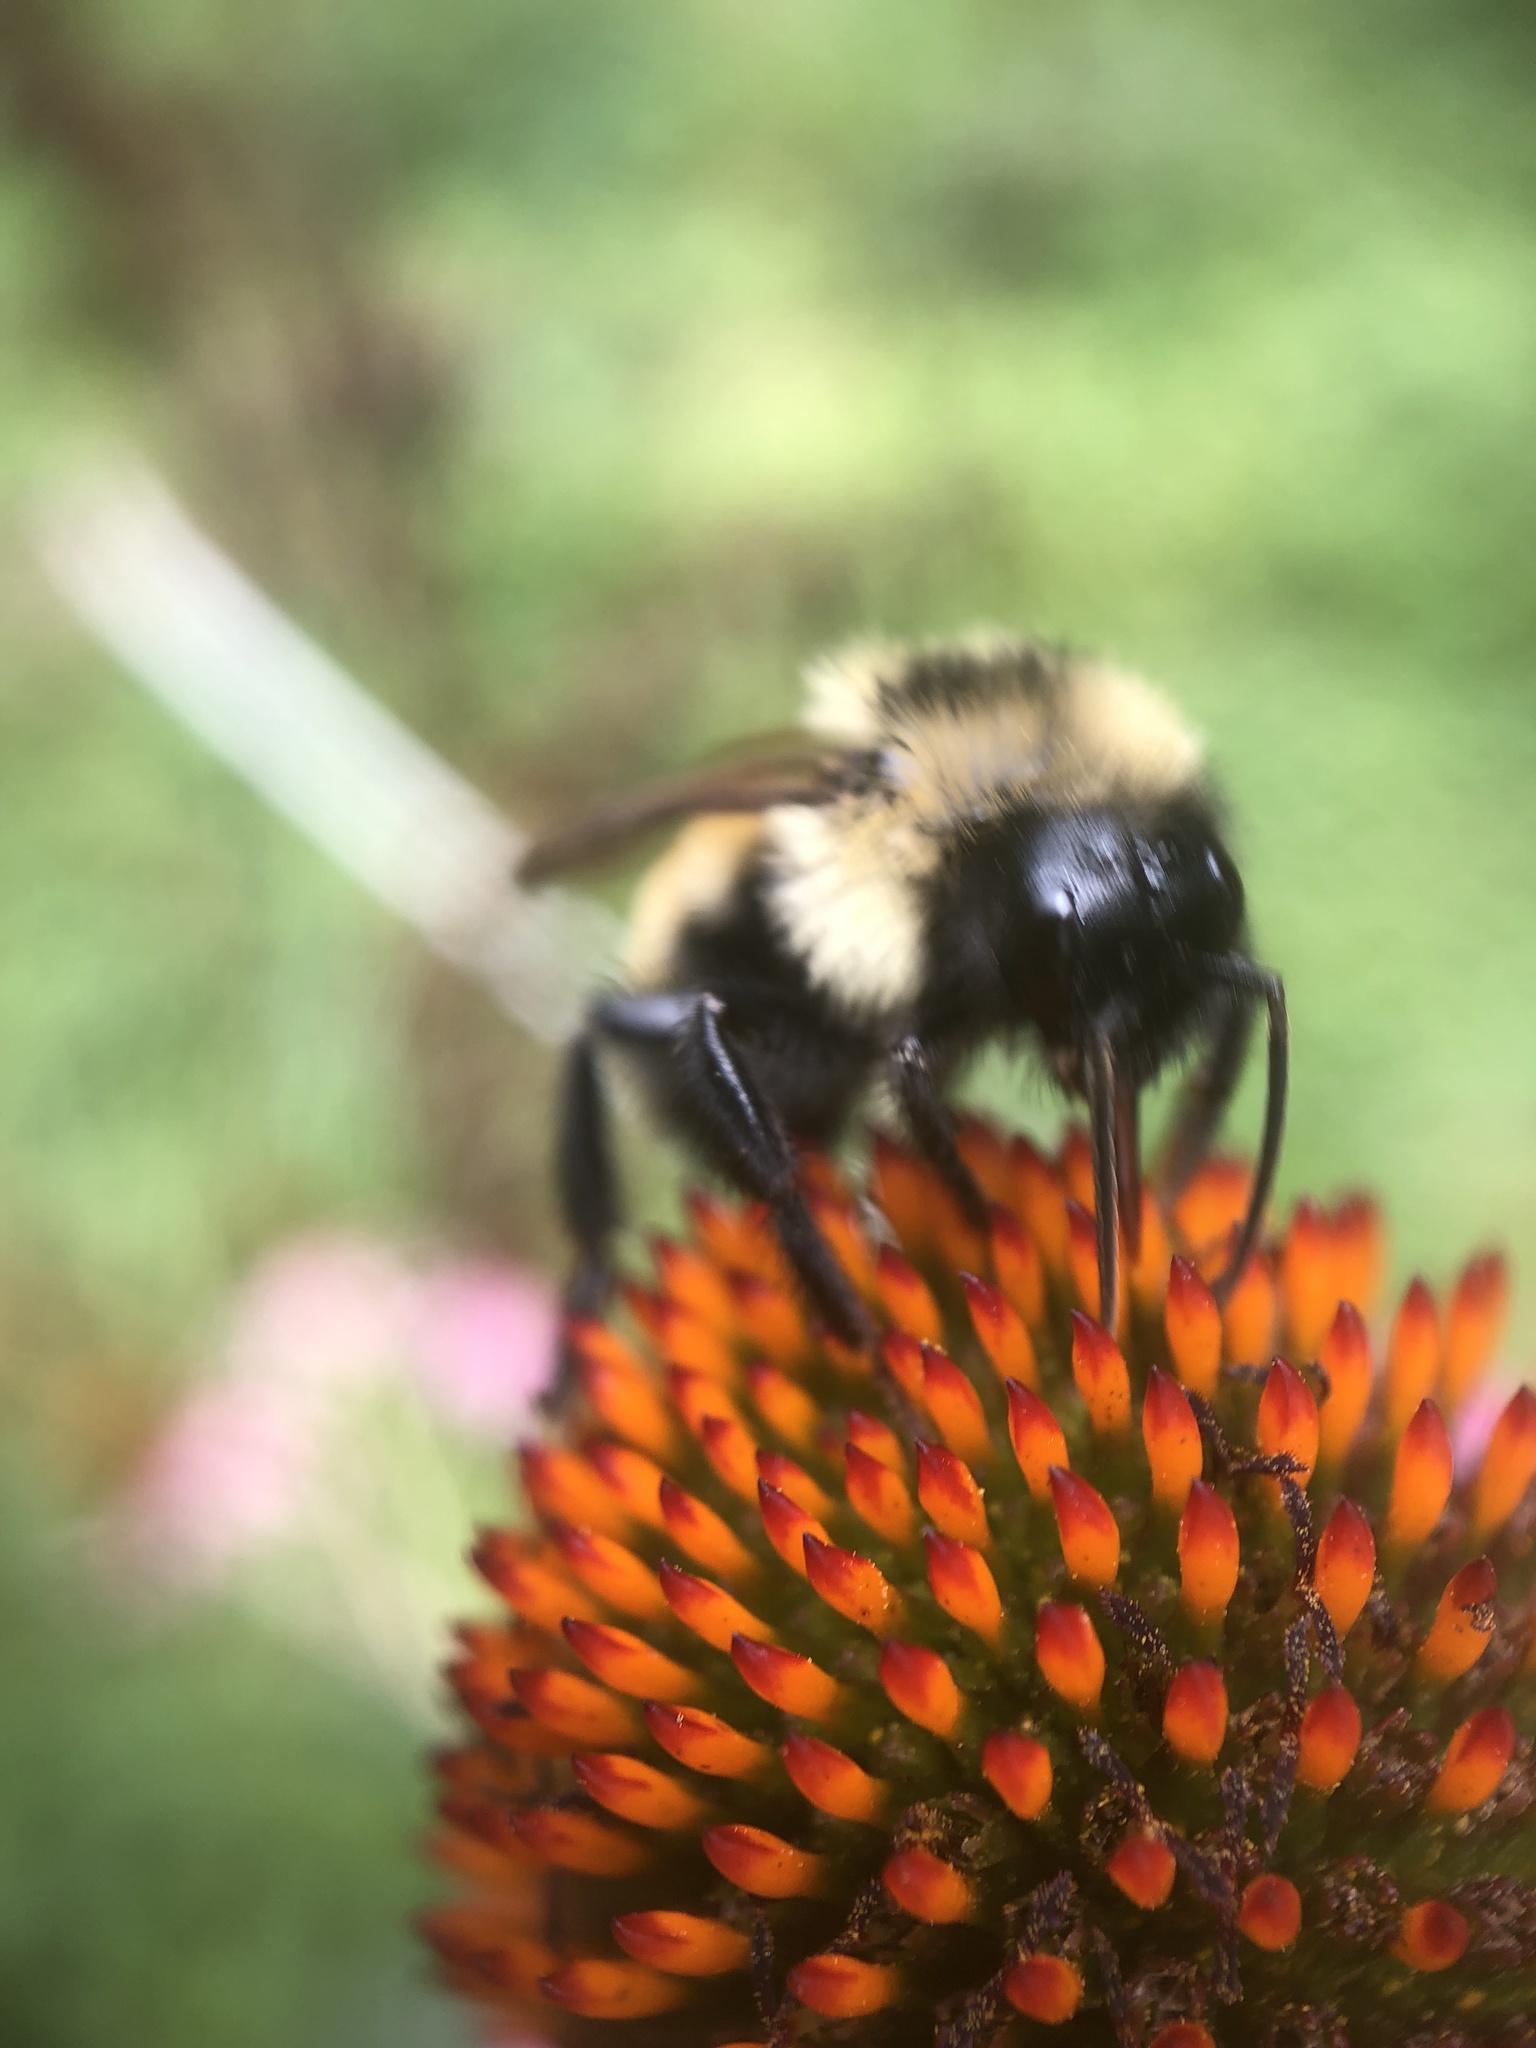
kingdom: Animalia
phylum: Arthropoda
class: Insecta
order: Hymenoptera
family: Apidae
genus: Bombus
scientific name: Bombus citrinus
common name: Lemon cuckoo bumble bee
